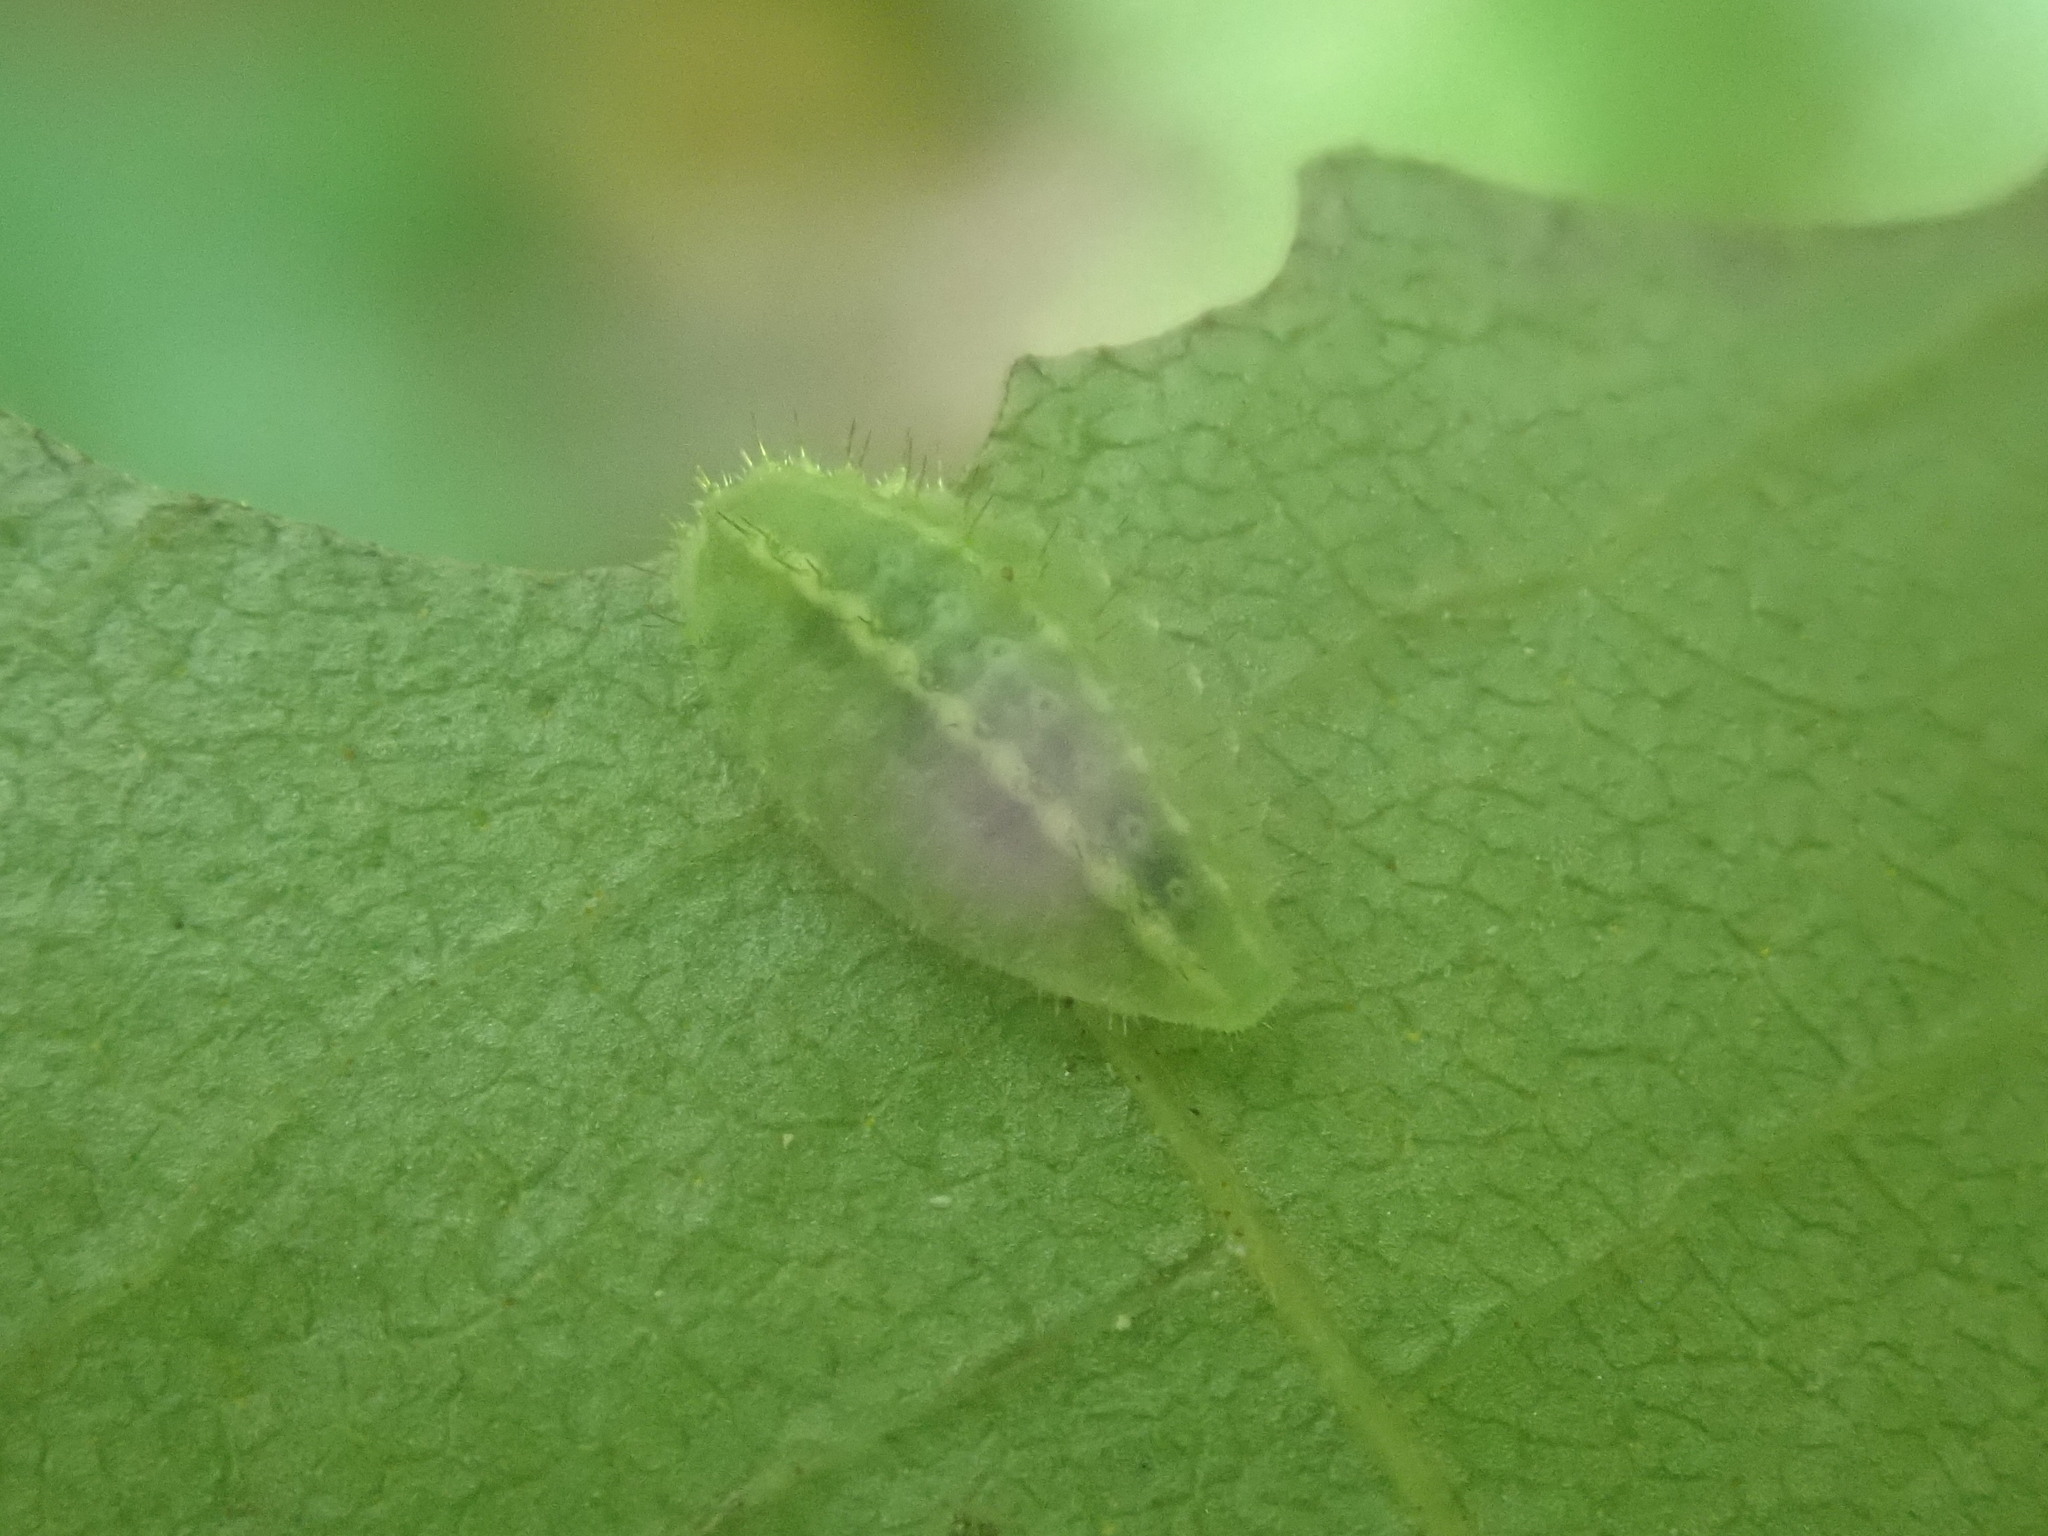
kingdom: Animalia
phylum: Arthropoda
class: Insecta
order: Lepidoptera
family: Limacodidae
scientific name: Limacodidae
